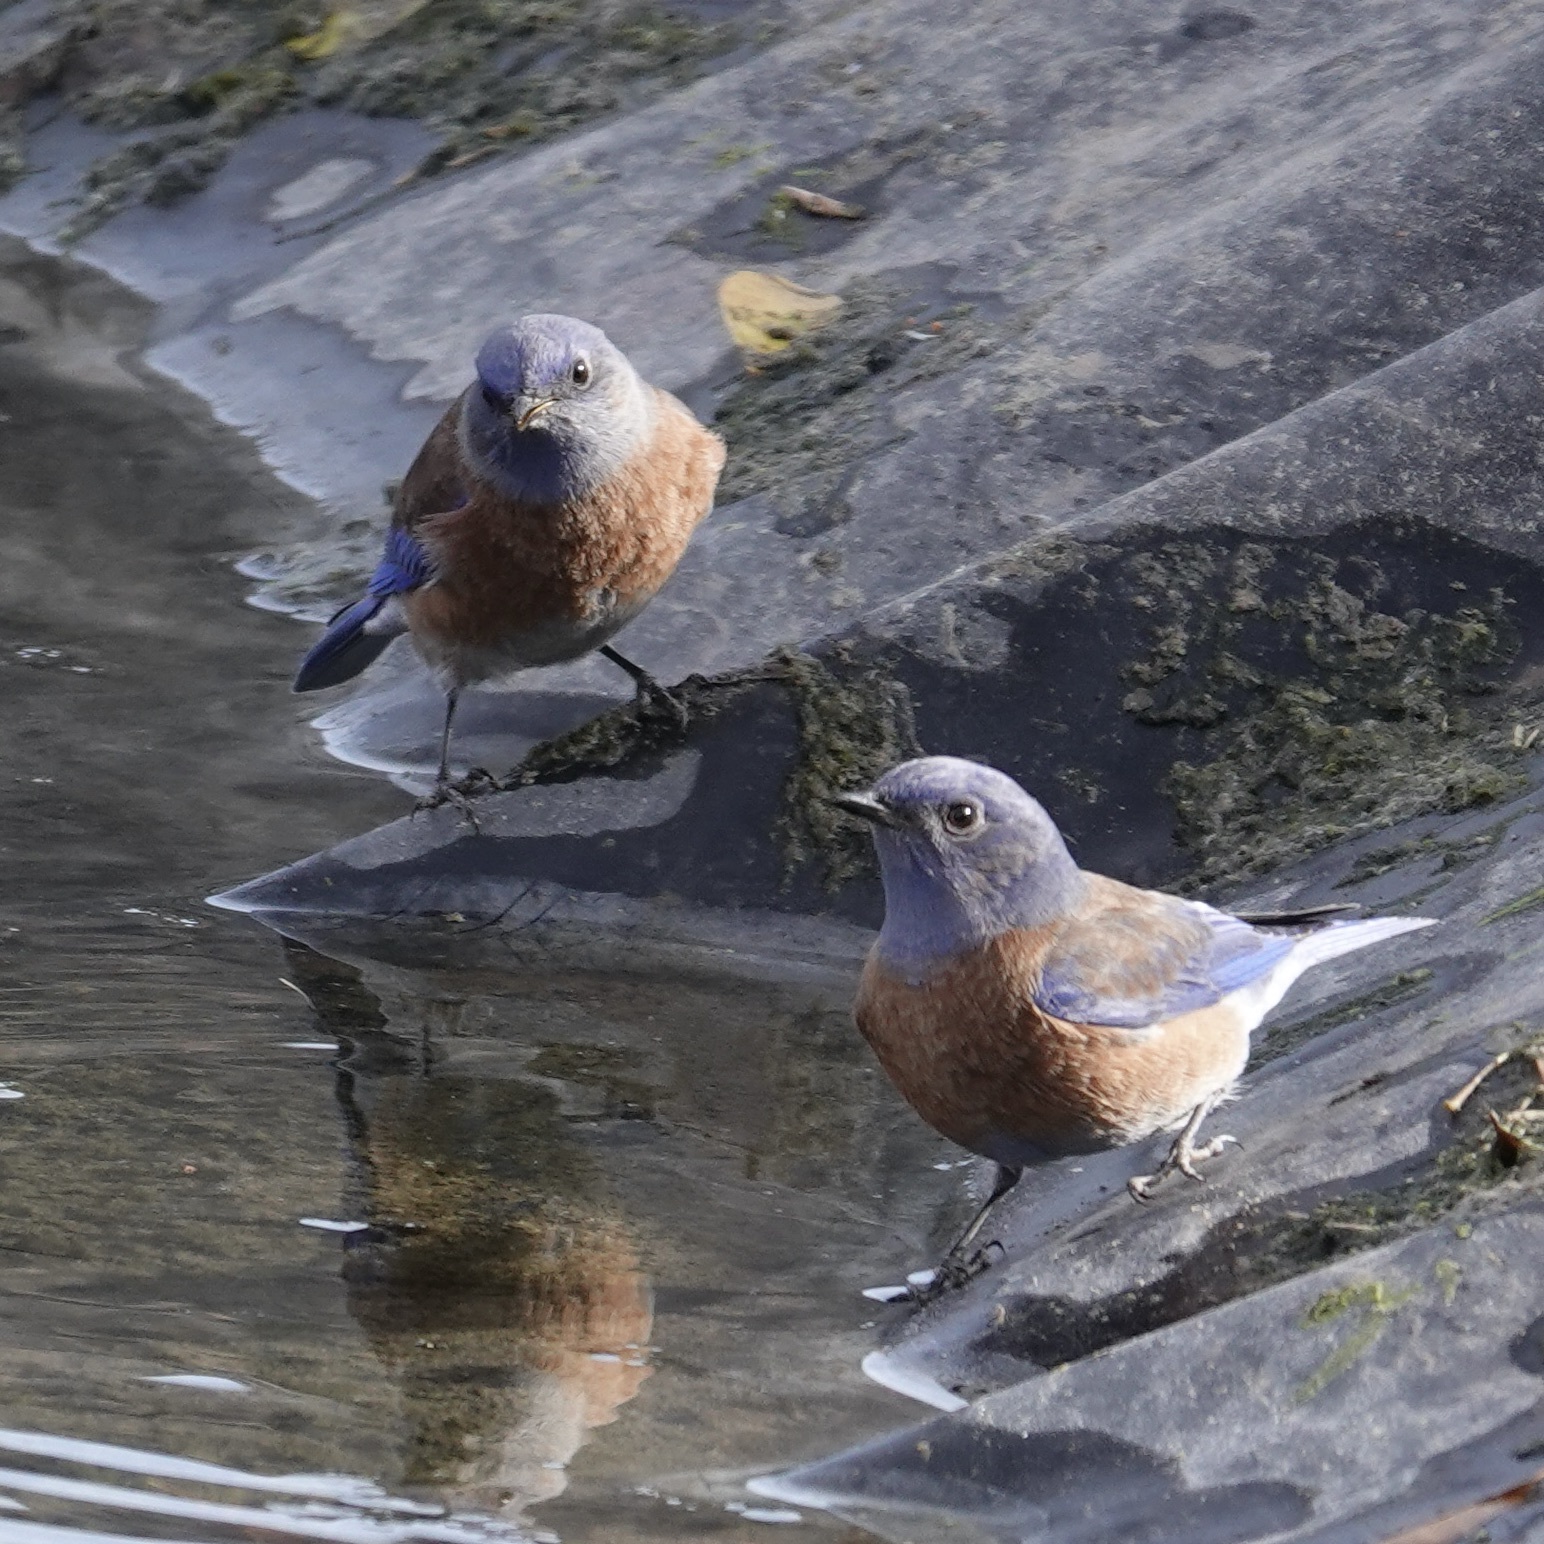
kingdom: Animalia
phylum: Chordata
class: Aves
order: Passeriformes
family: Turdidae
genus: Sialia
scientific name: Sialia mexicana
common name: Western bluebird
